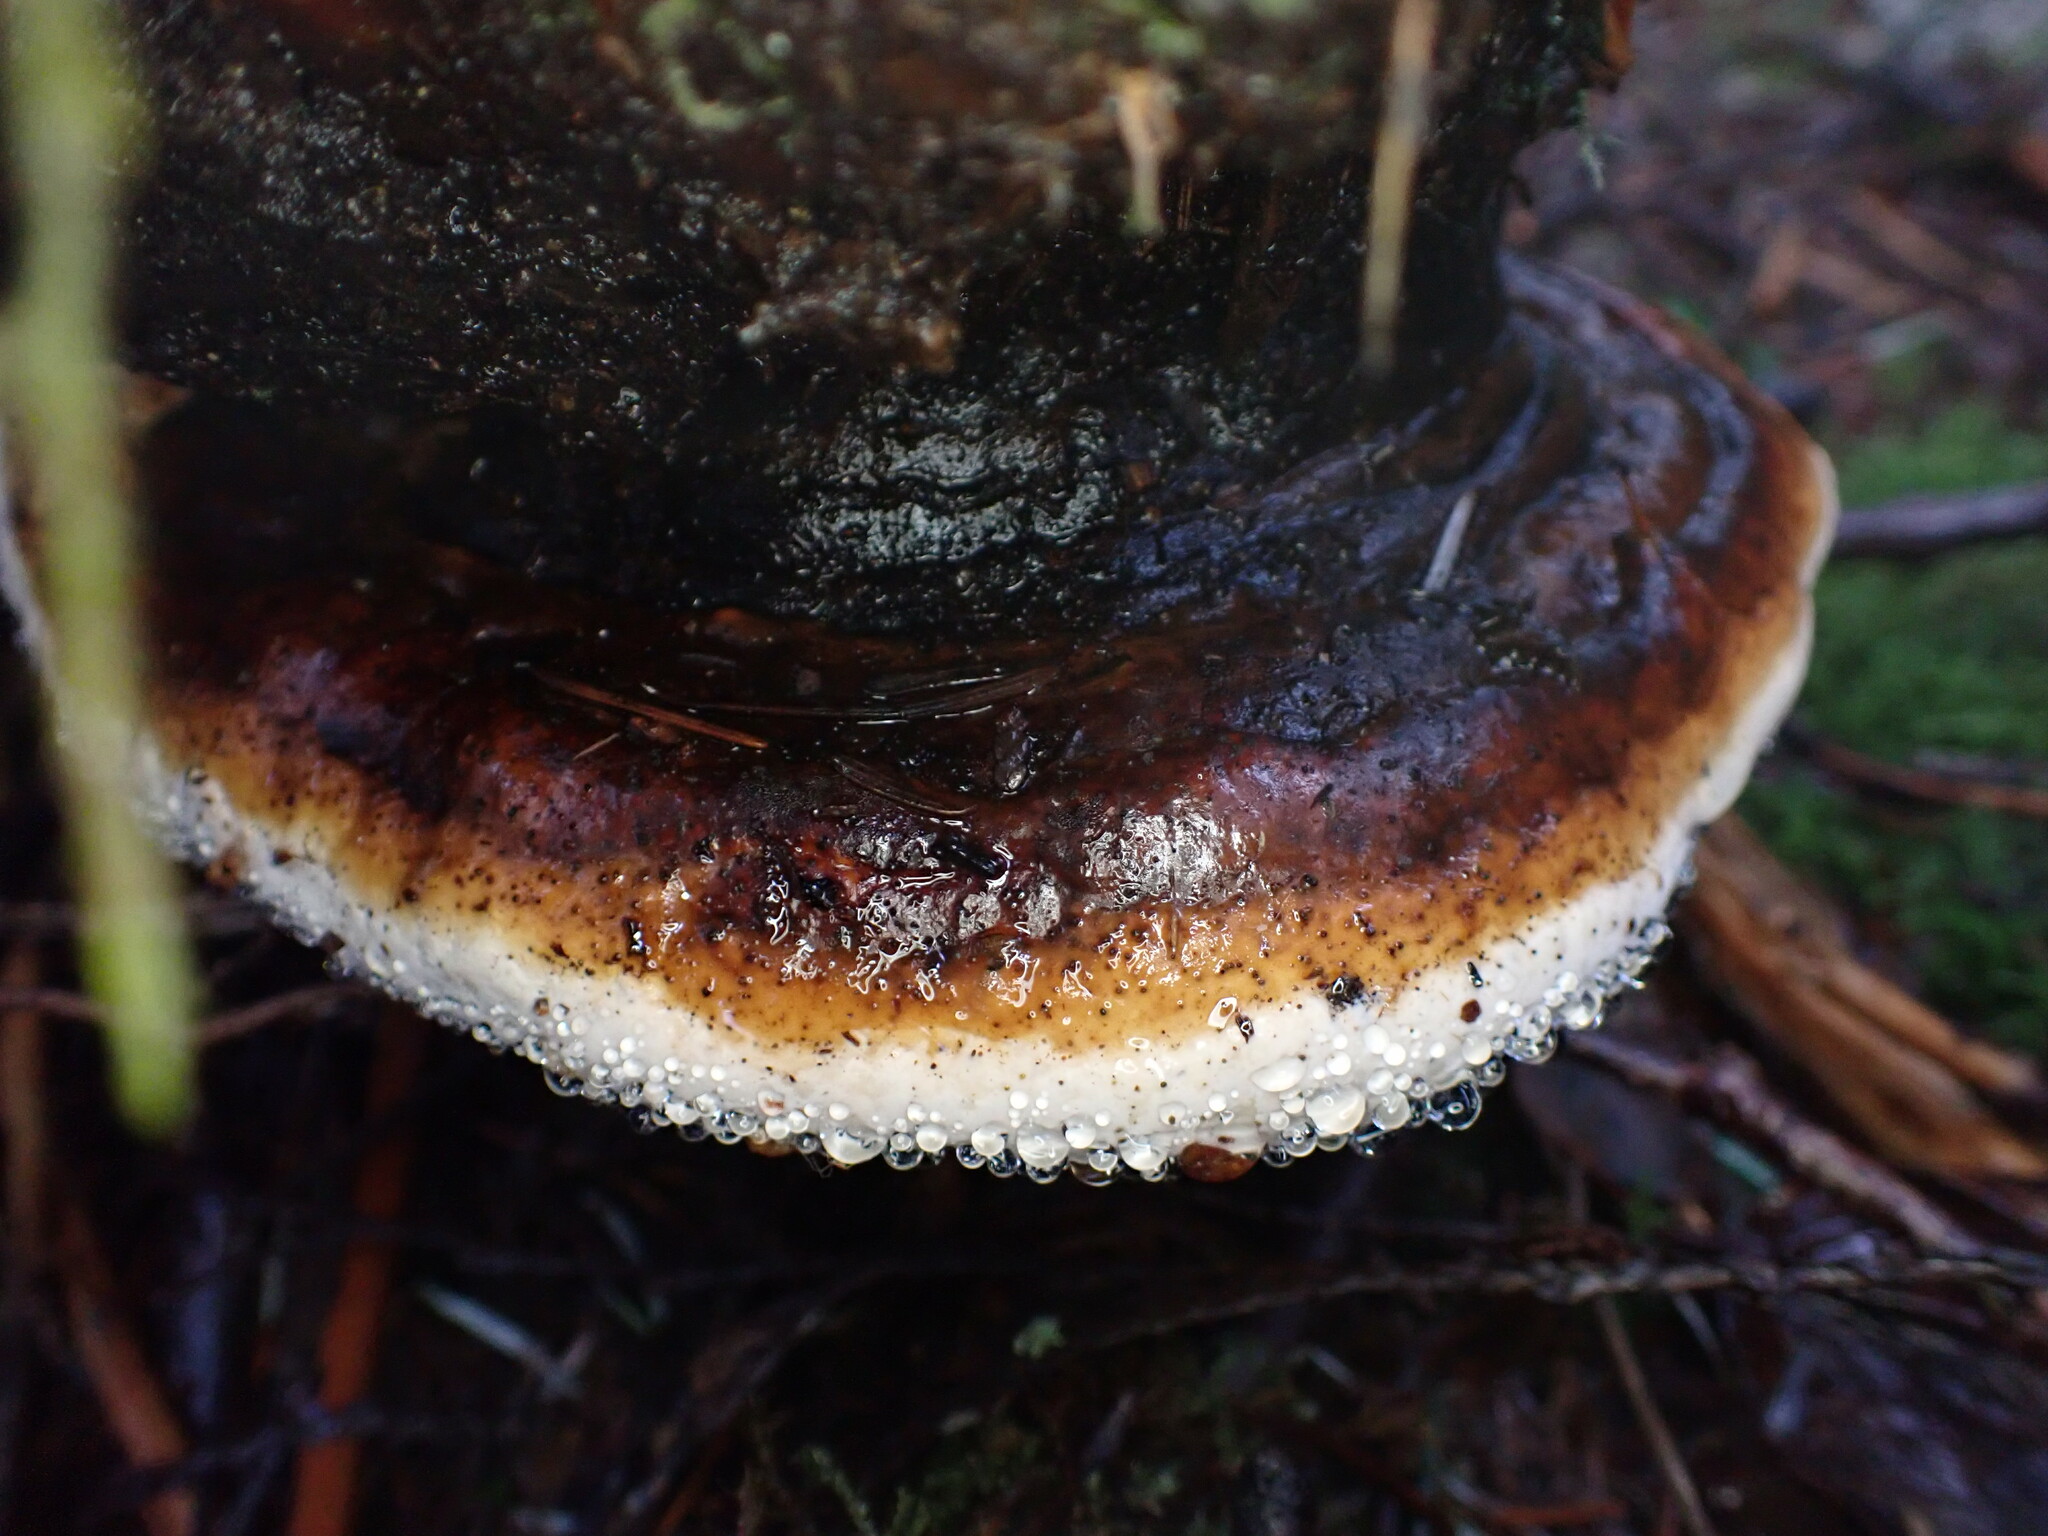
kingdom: Fungi
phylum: Basidiomycota
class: Agaricomycetes
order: Polyporales
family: Fomitopsidaceae
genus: Fomitopsis
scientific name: Fomitopsis mounceae
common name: Northern red belt
